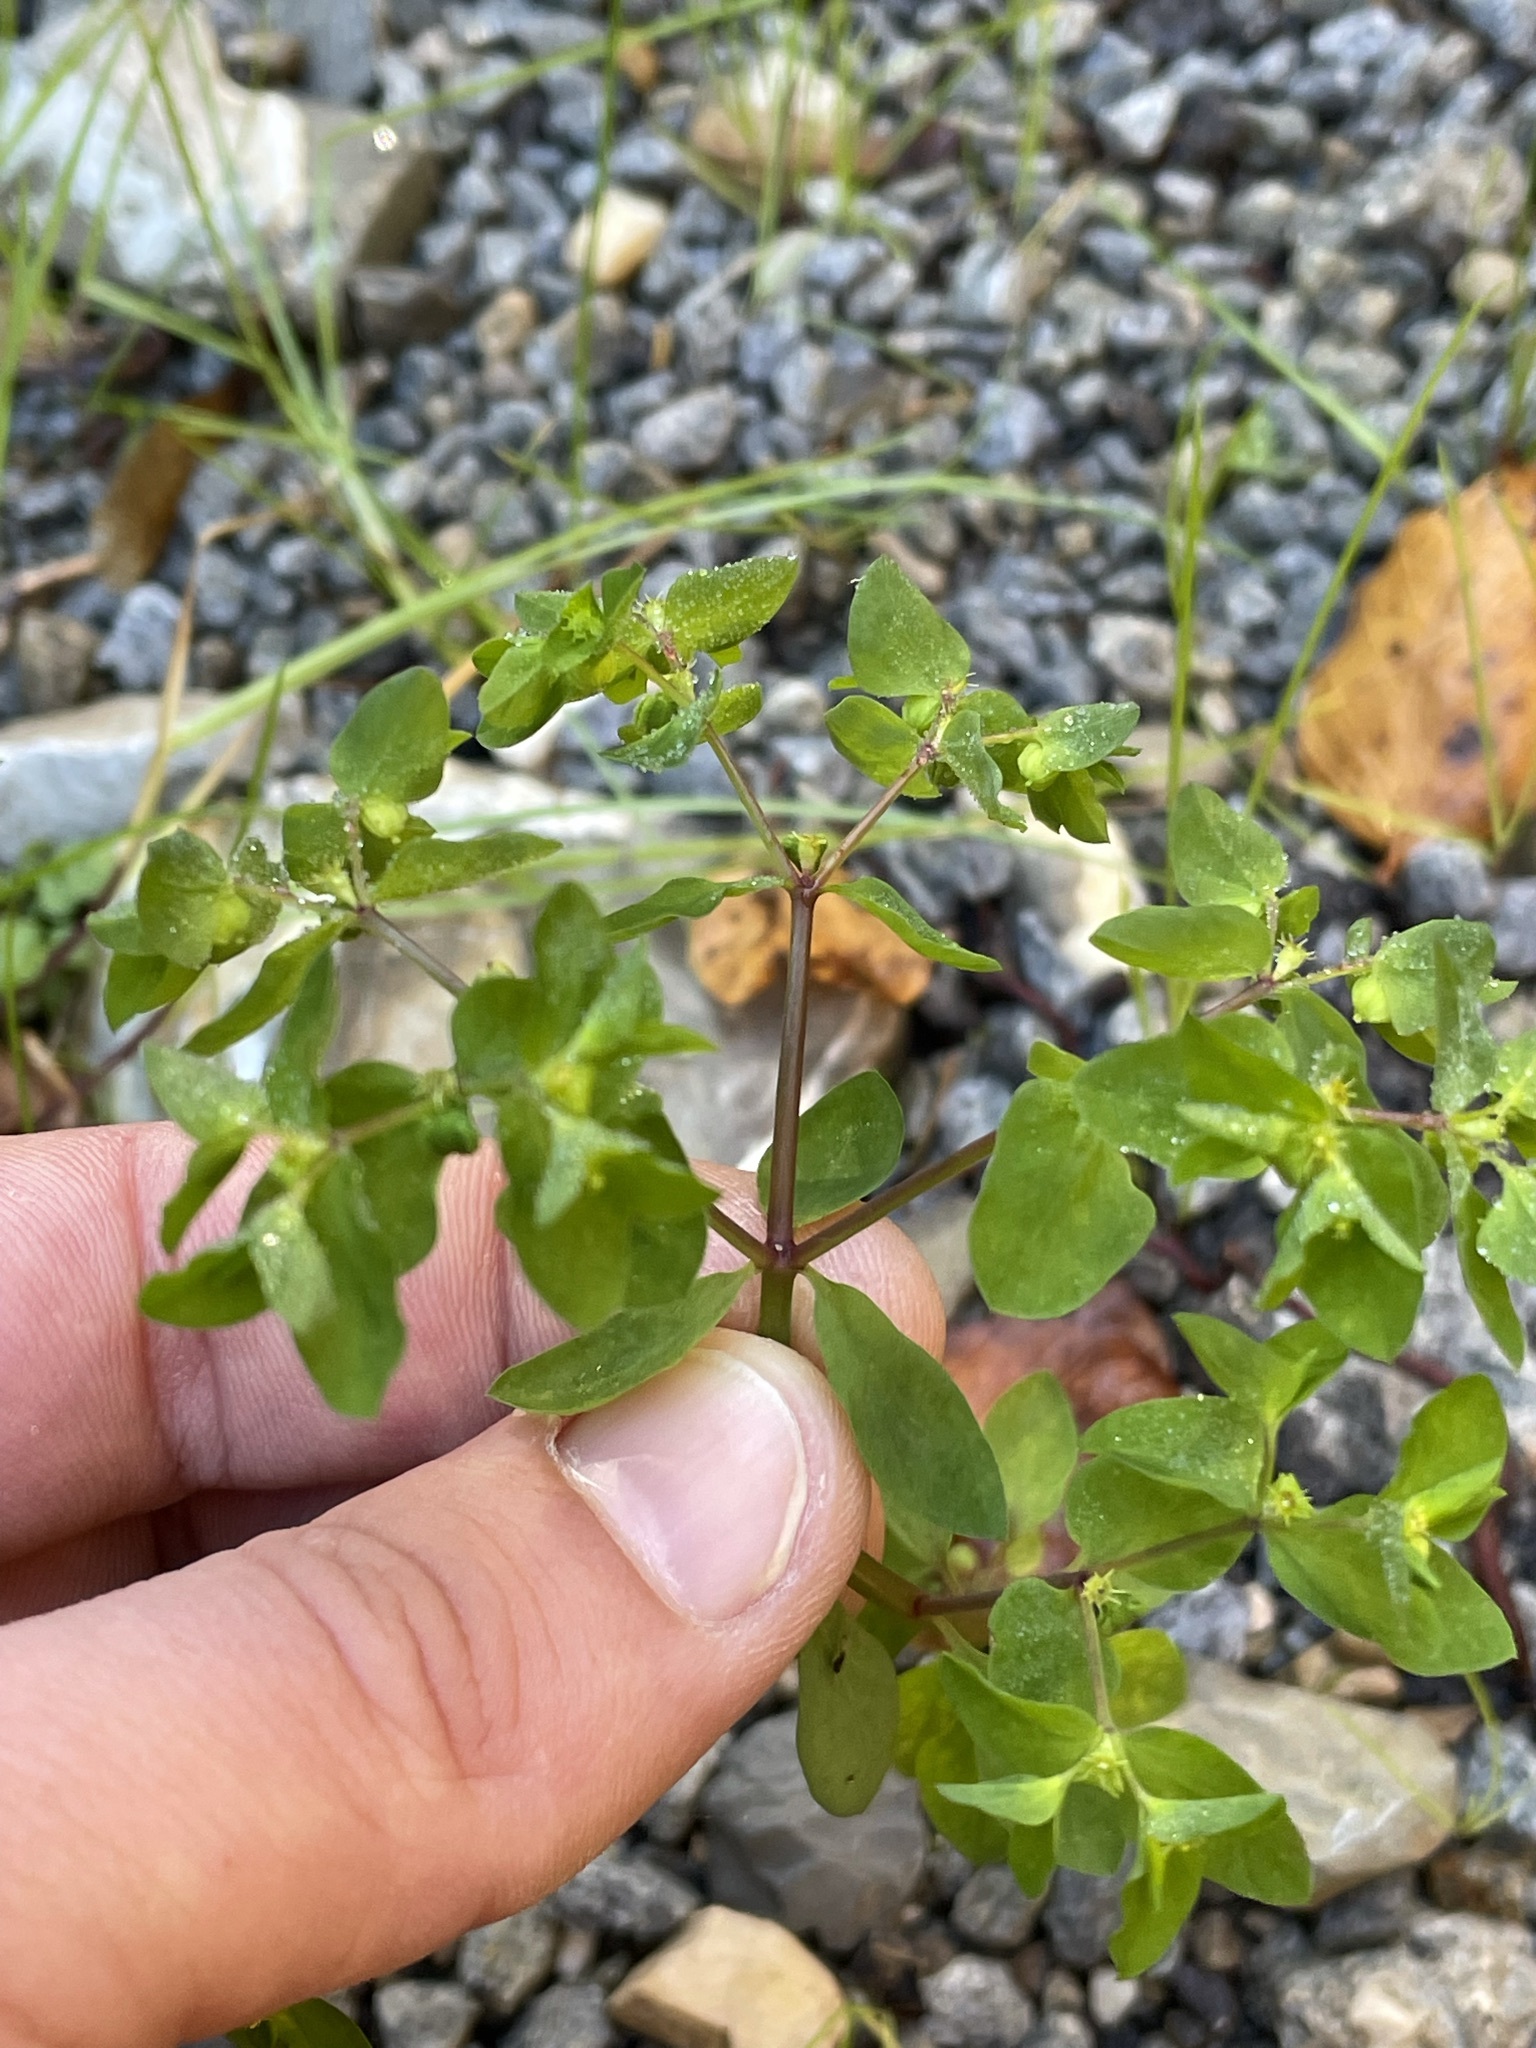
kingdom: Plantae
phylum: Tracheophyta
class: Magnoliopsida
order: Malpighiales
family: Euphorbiaceae
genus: Euphorbia
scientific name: Euphorbia peplus
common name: Petty spurge
